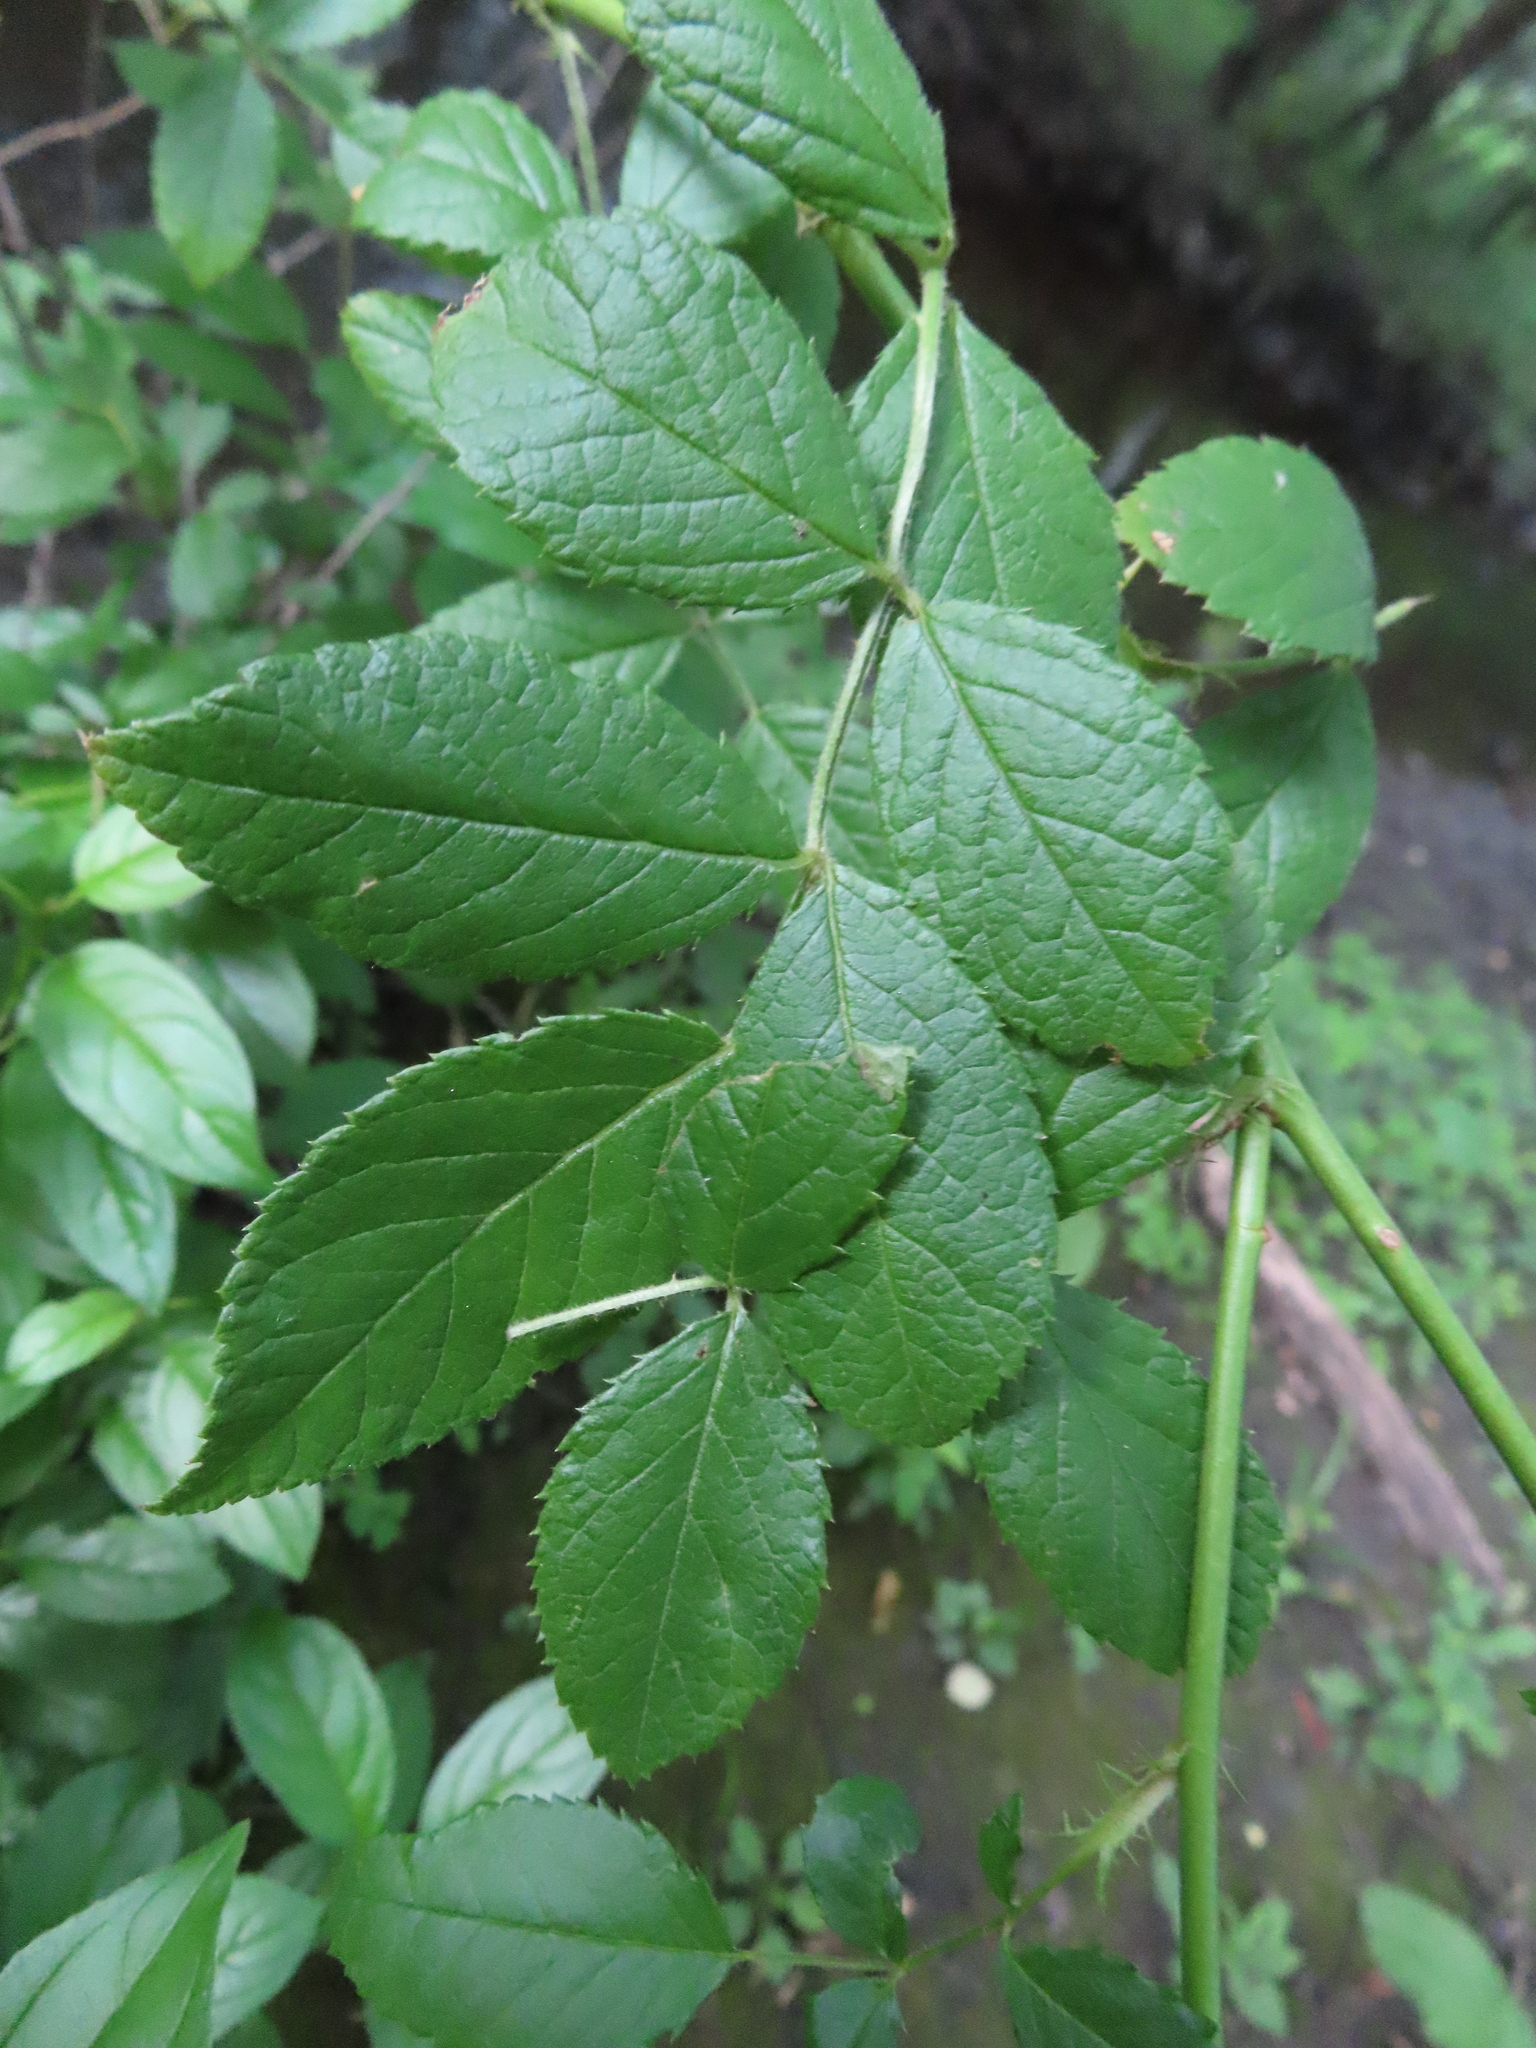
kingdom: Plantae
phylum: Tracheophyta
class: Magnoliopsida
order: Rosales
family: Rosaceae
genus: Rosa
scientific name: Rosa multiflora
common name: Multiflora rose
